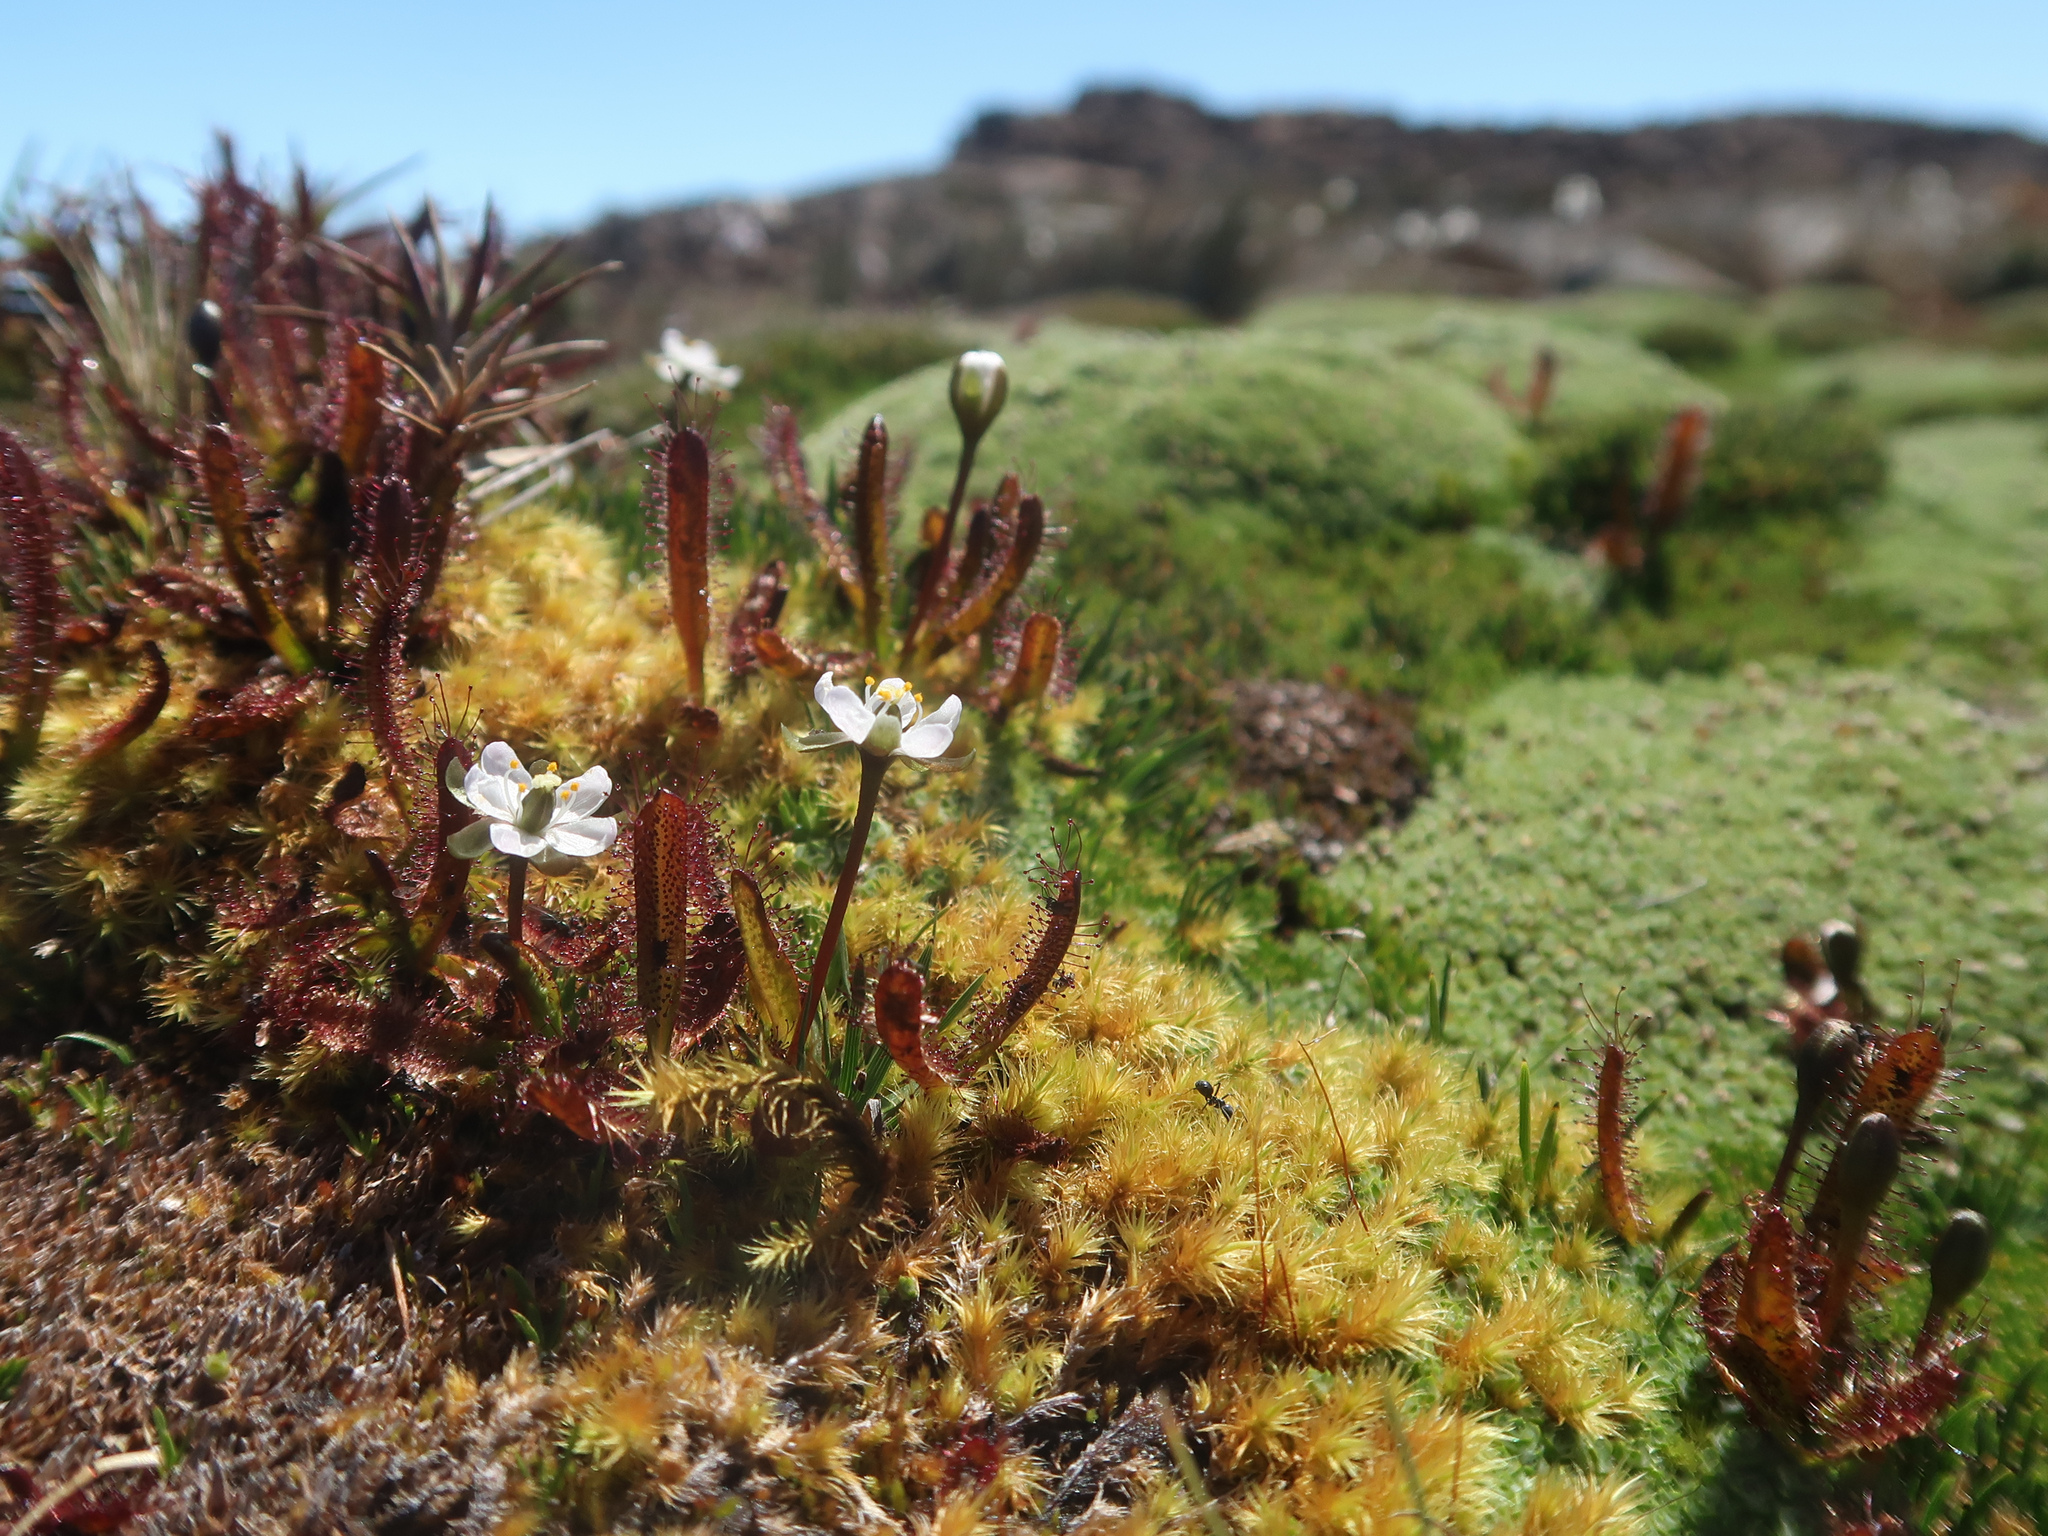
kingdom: Plantae
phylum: Tracheophyta
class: Magnoliopsida
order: Caryophyllales
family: Droseraceae
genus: Drosera
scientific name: Drosera arcturi
